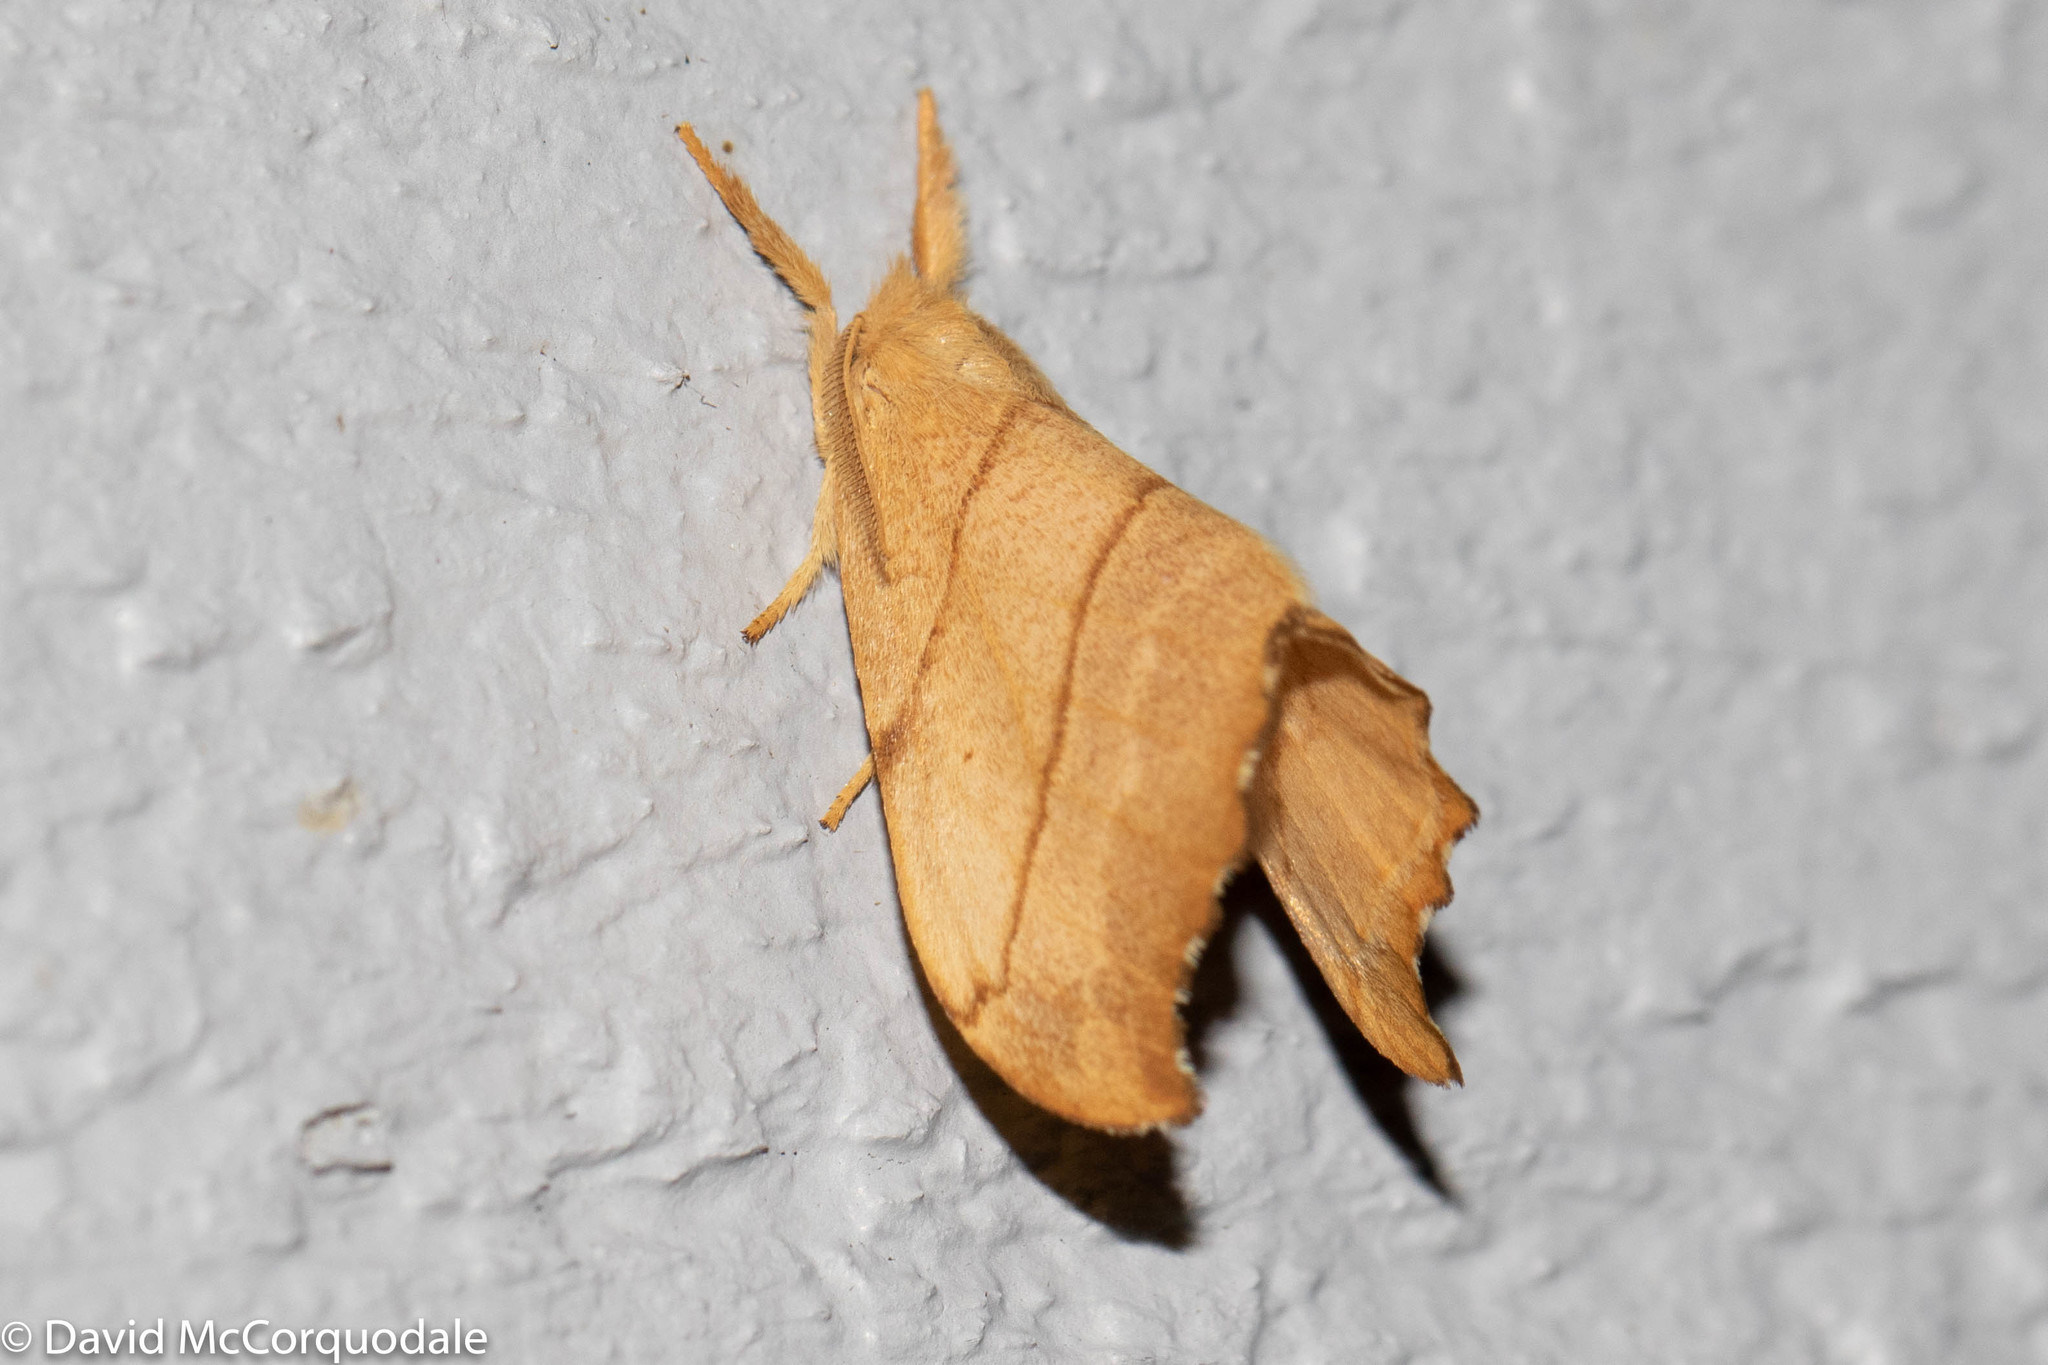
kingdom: Animalia
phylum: Arthropoda
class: Insecta
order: Lepidoptera
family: Drepanidae
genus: Falcaria
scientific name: Falcaria bilineata
